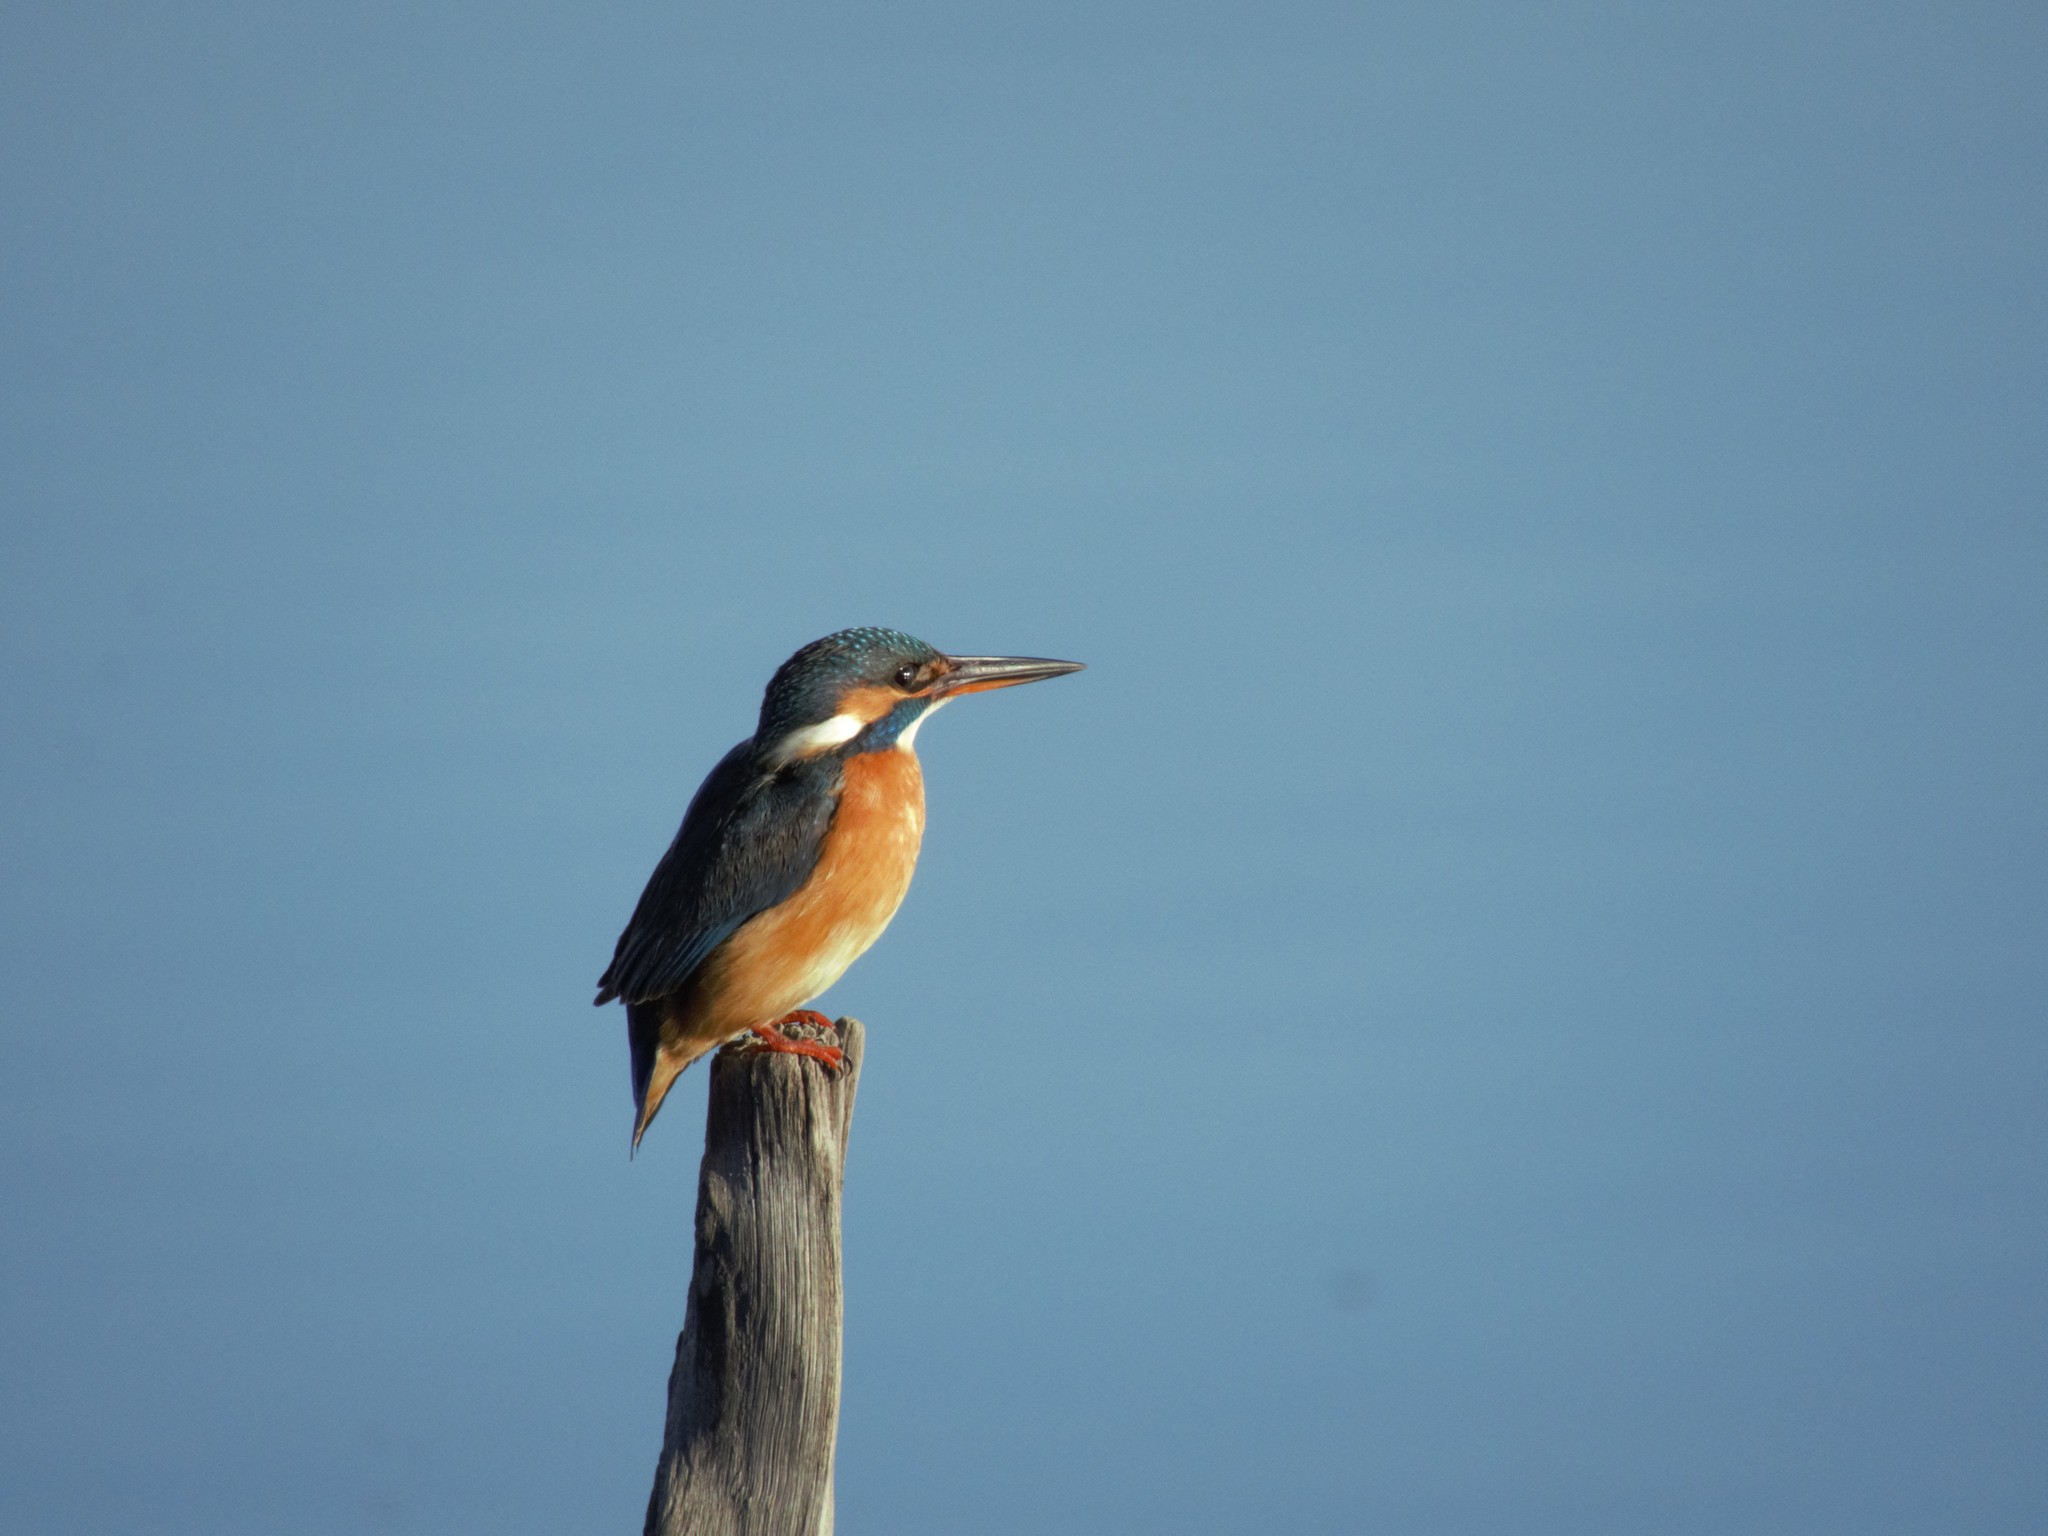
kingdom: Animalia
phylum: Chordata
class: Aves
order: Coraciiformes
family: Alcedinidae
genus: Alcedo
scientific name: Alcedo atthis
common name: Common kingfisher
